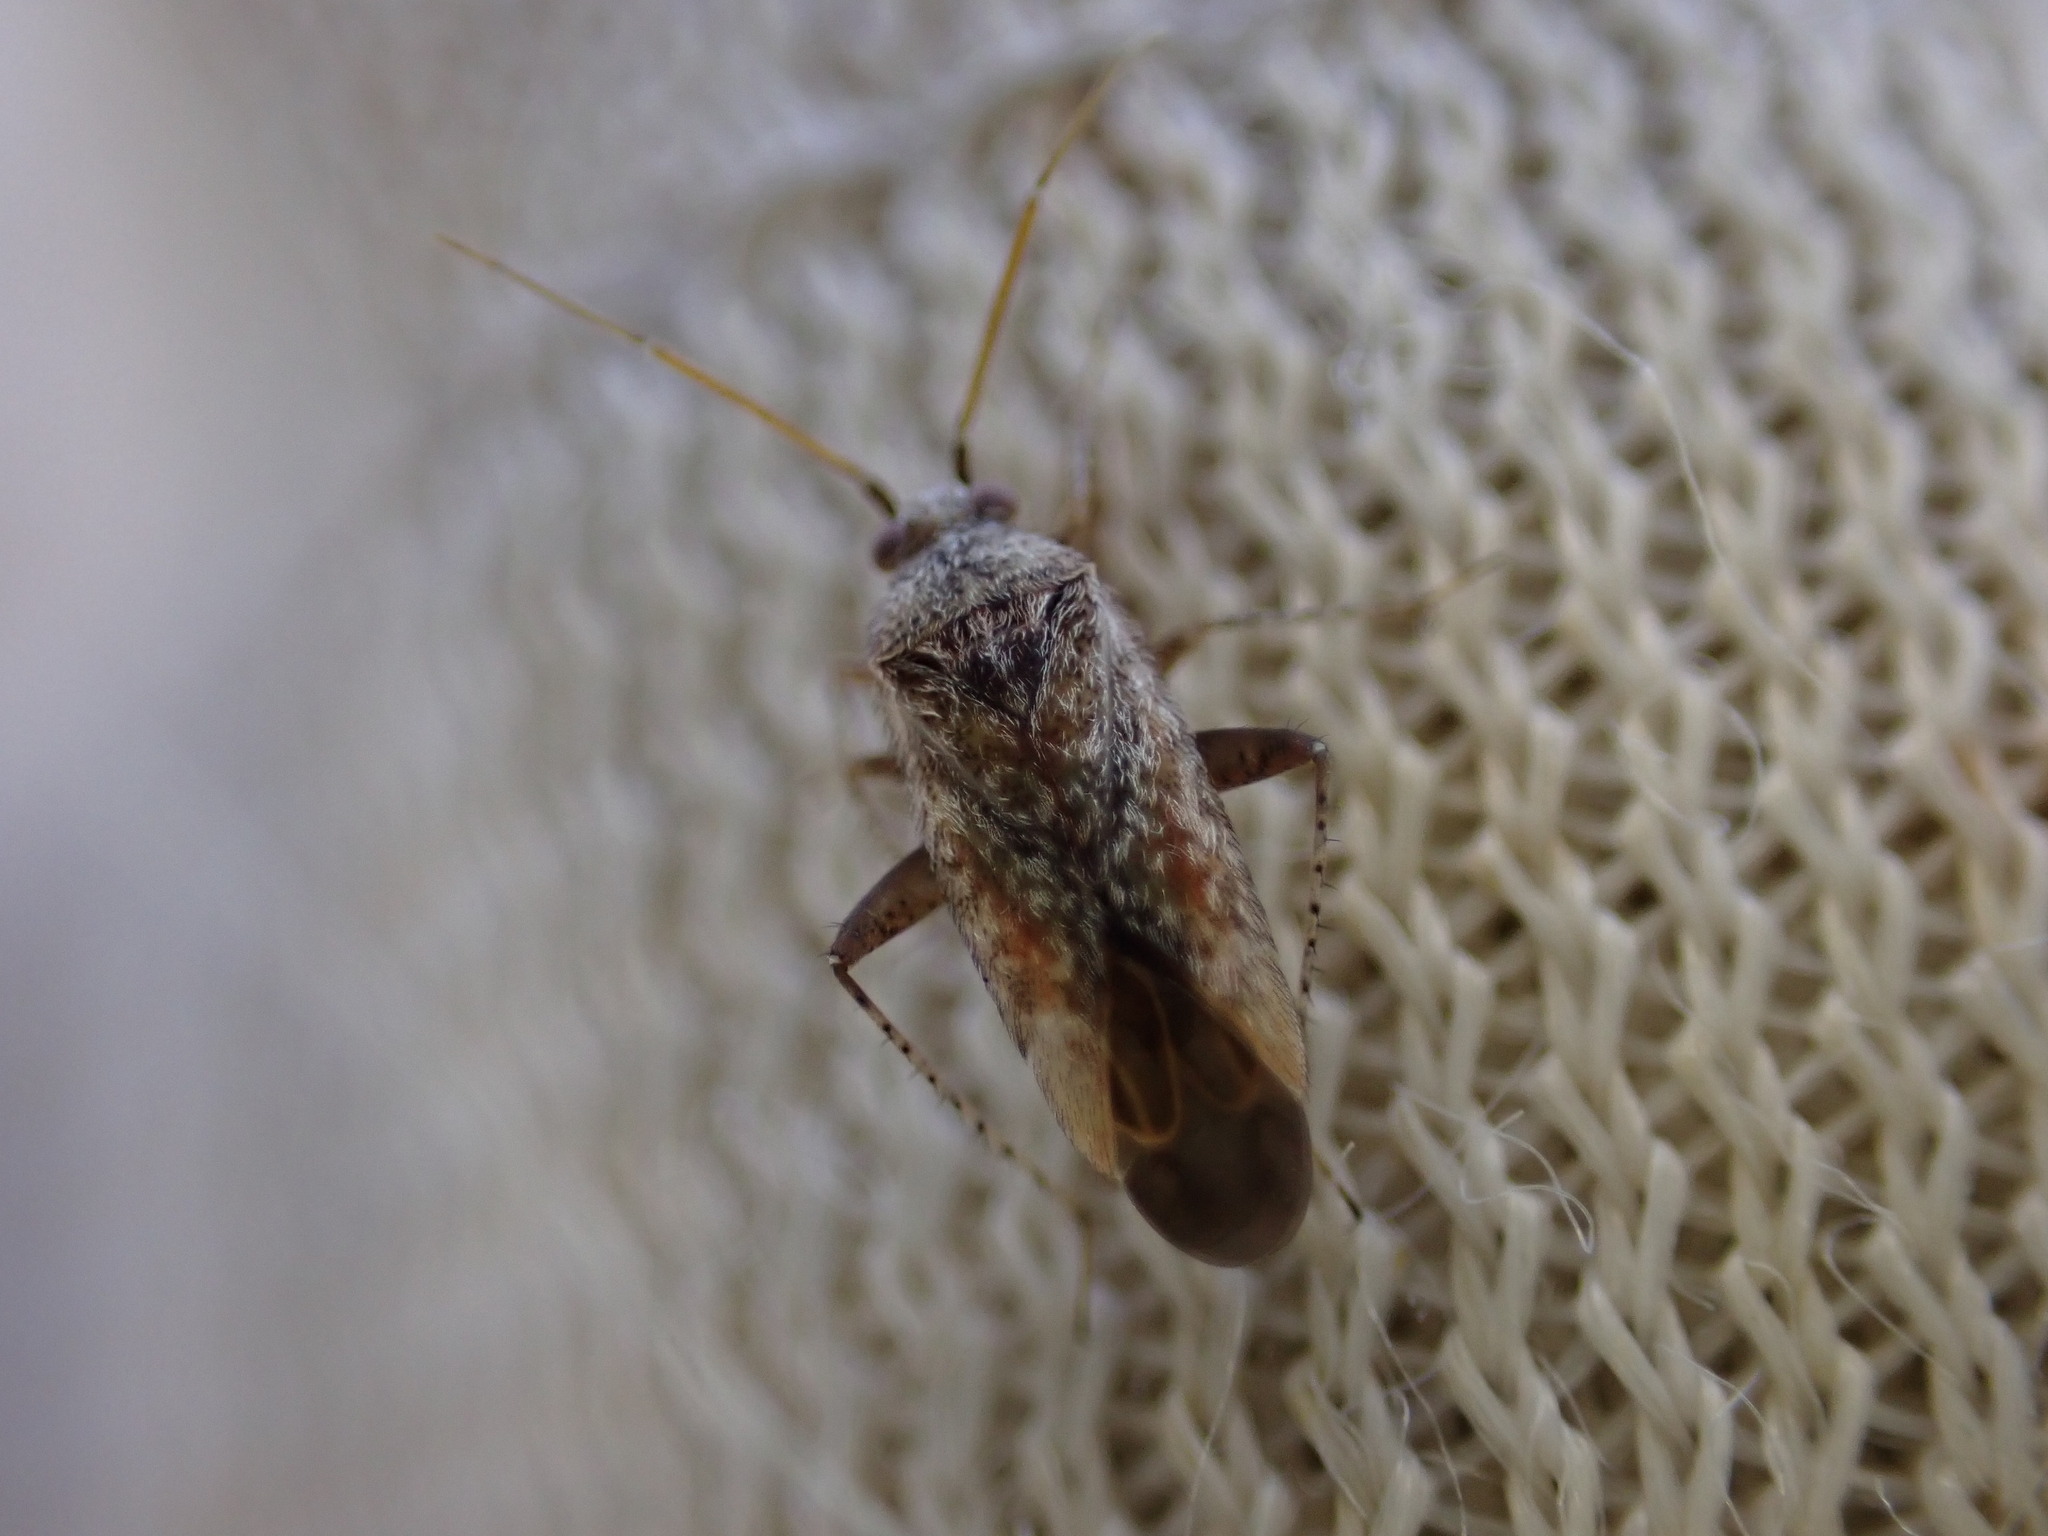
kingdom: Animalia
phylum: Arthropoda
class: Insecta
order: Hemiptera
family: Miridae
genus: Compsidolon
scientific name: Compsidolon crotchi
